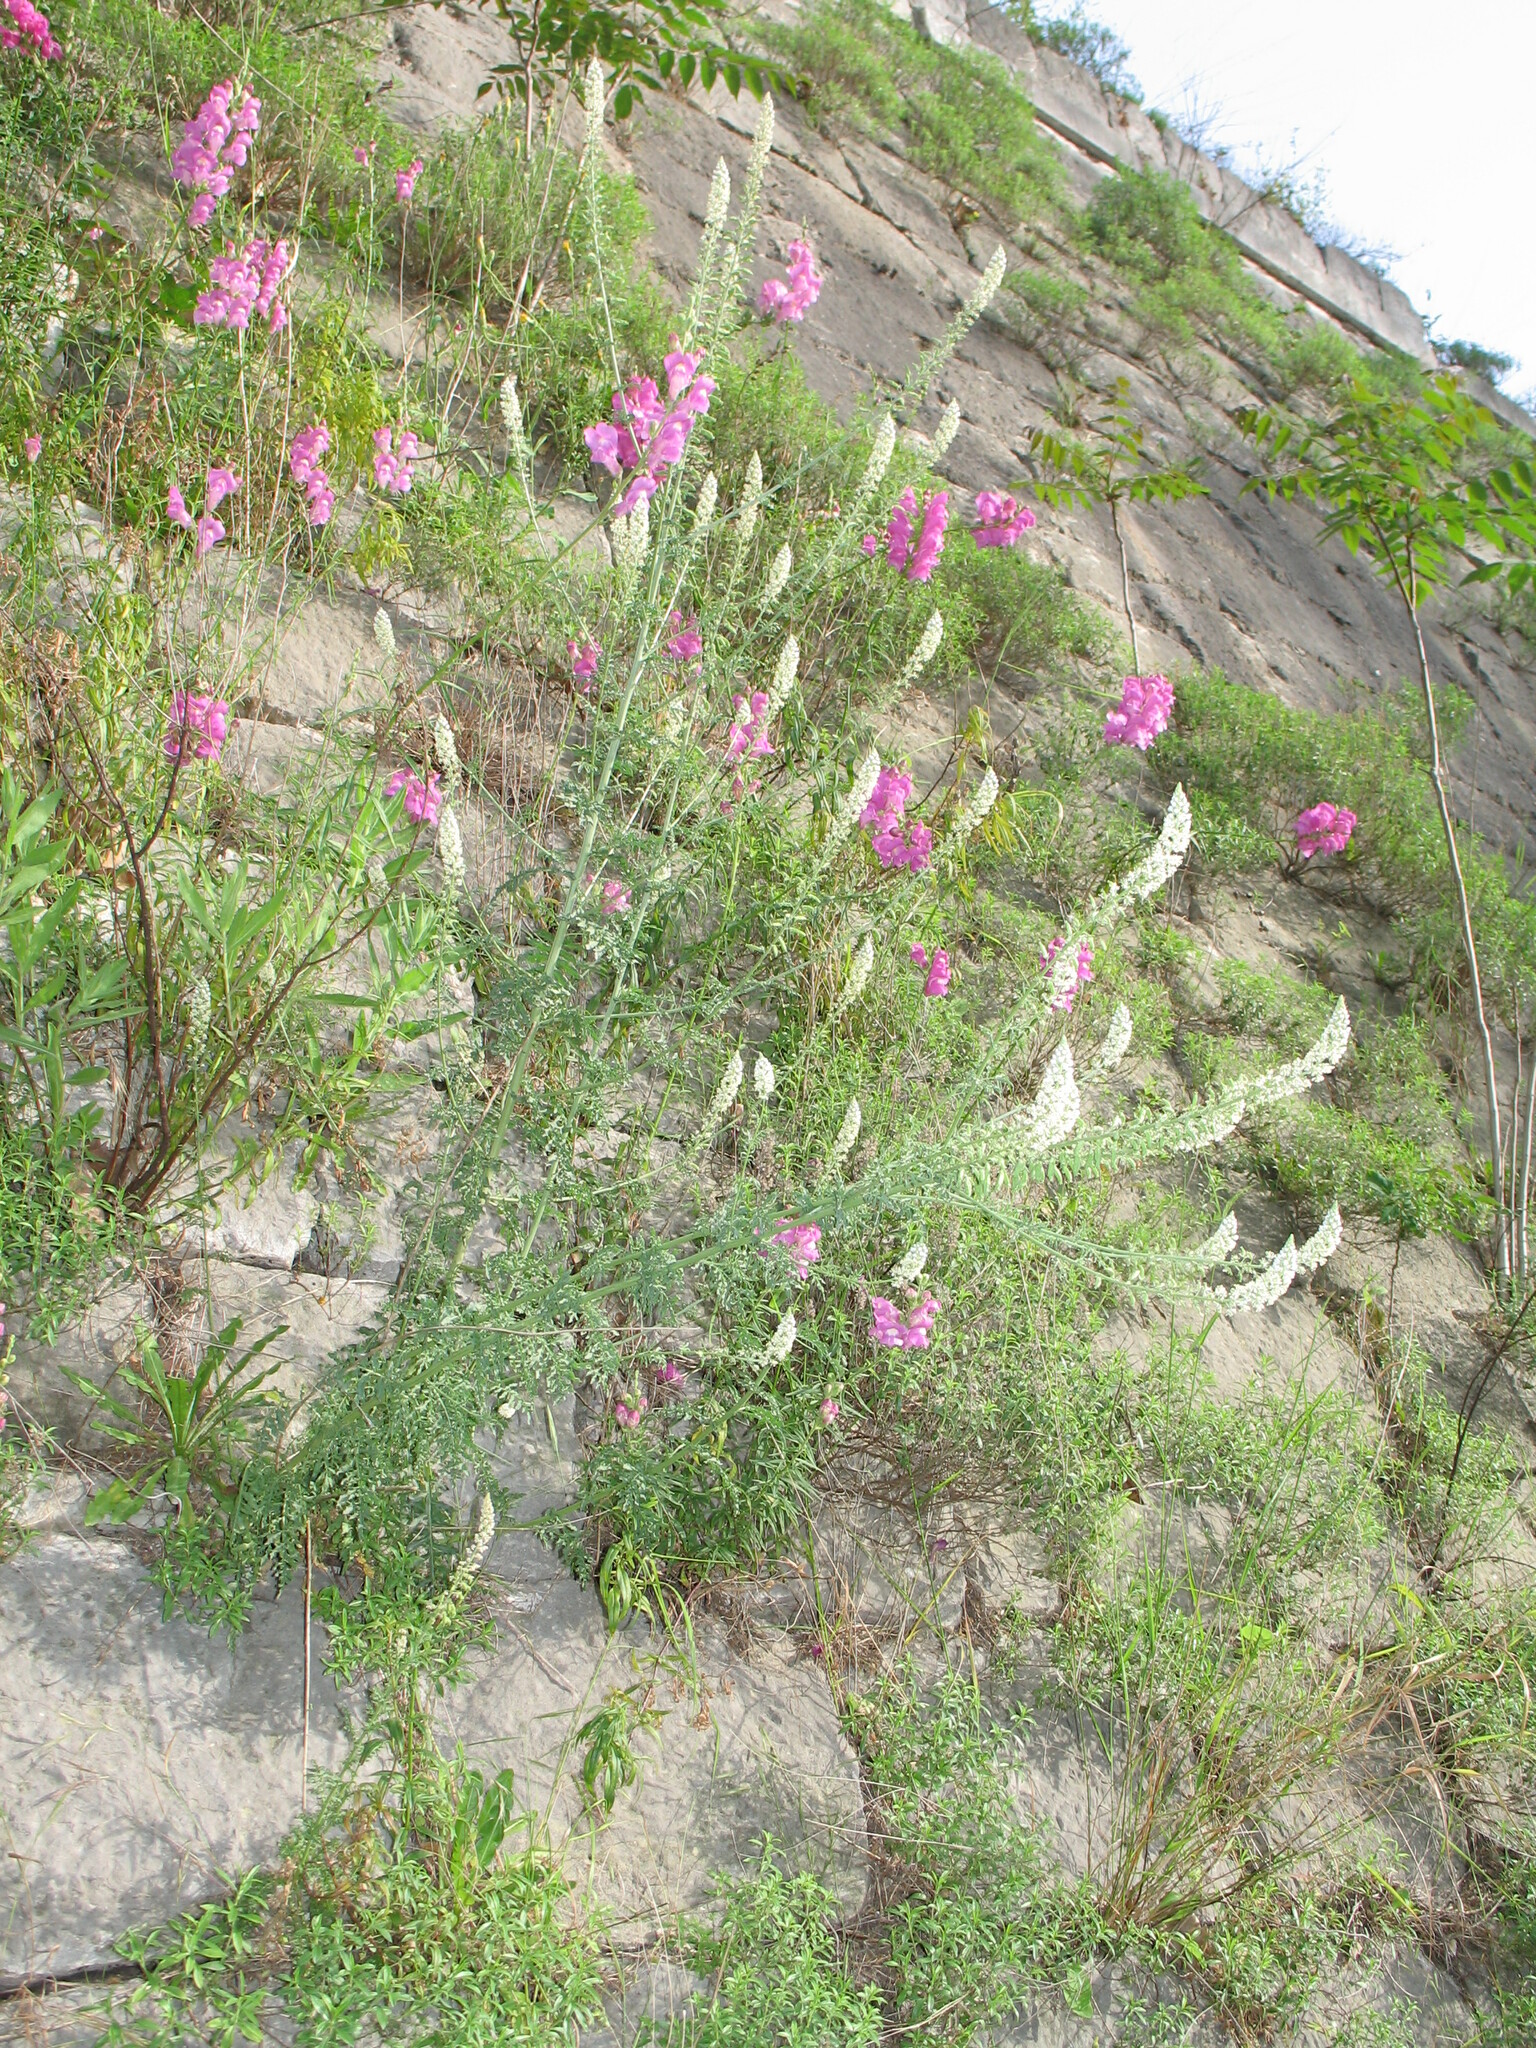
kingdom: Plantae
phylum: Tracheophyta
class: Magnoliopsida
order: Brassicales
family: Resedaceae
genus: Reseda
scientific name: Reseda alba
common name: White mignonette
